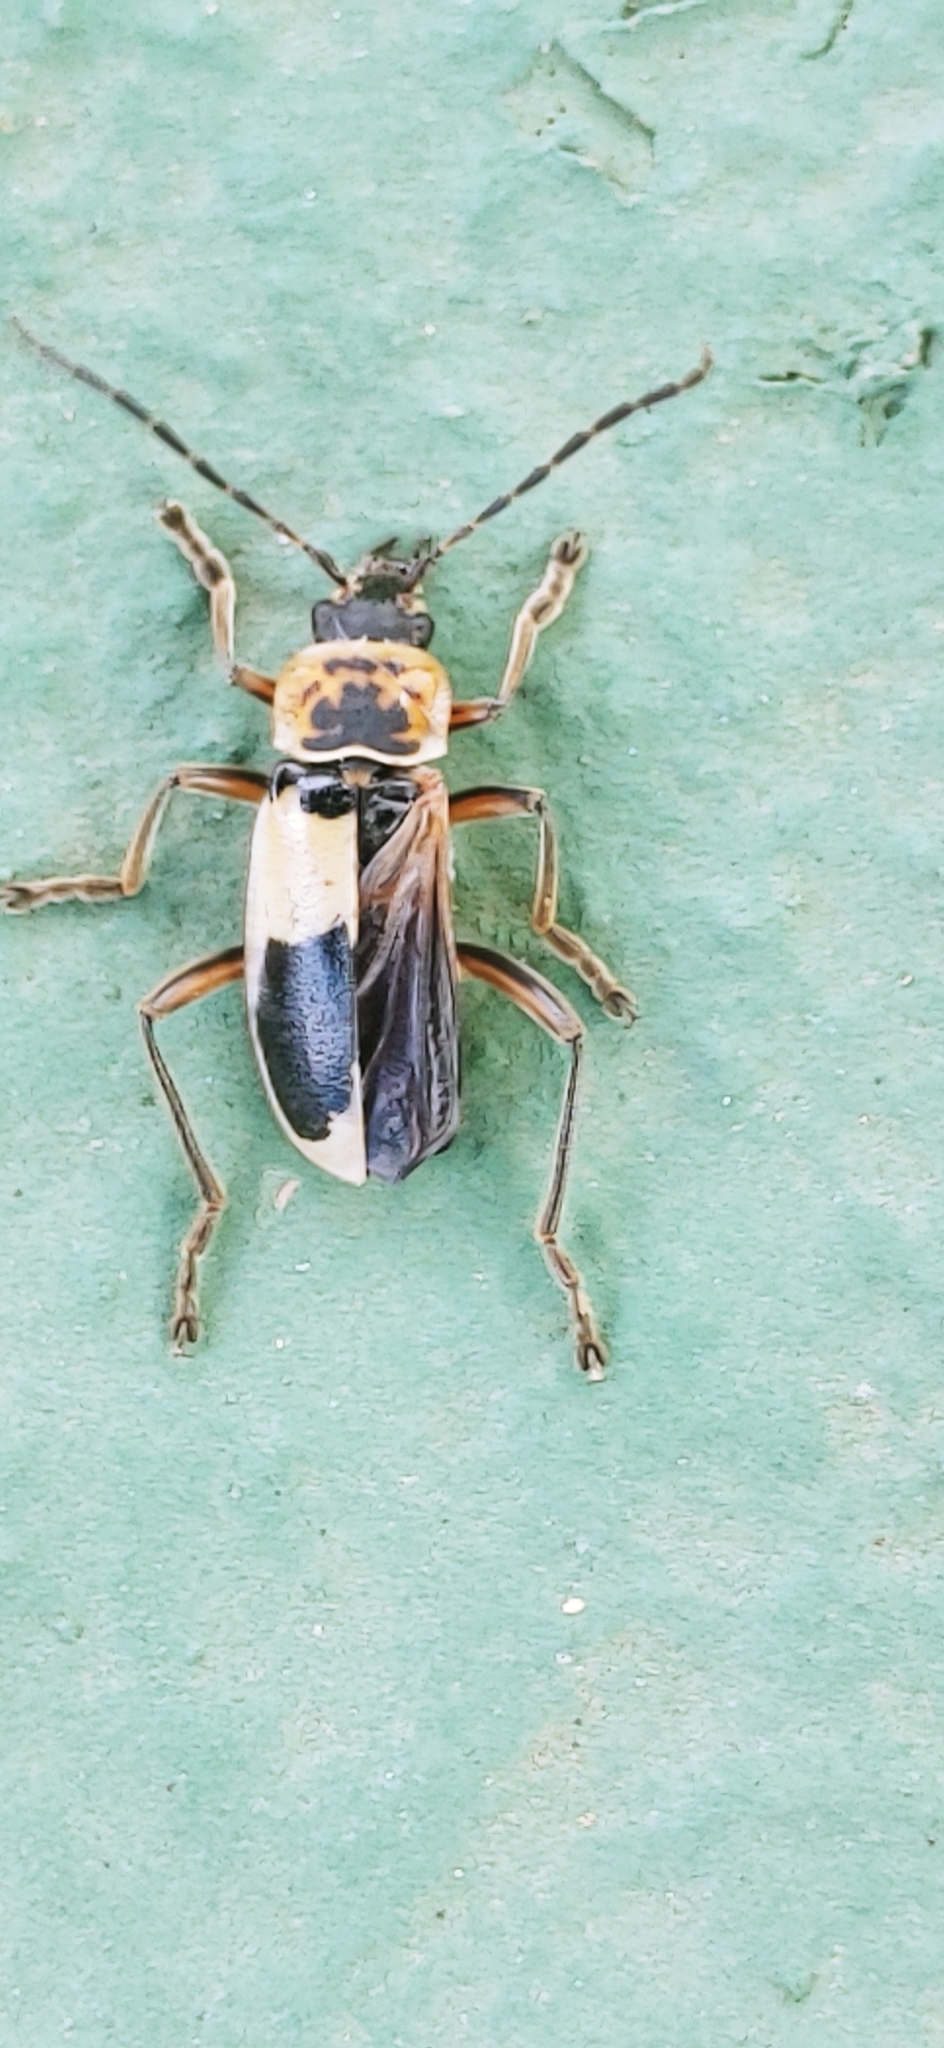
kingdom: Animalia
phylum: Arthropoda
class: Insecta
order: Coleoptera
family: Cantharidae
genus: Chauliognathus
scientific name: Chauliognathus
